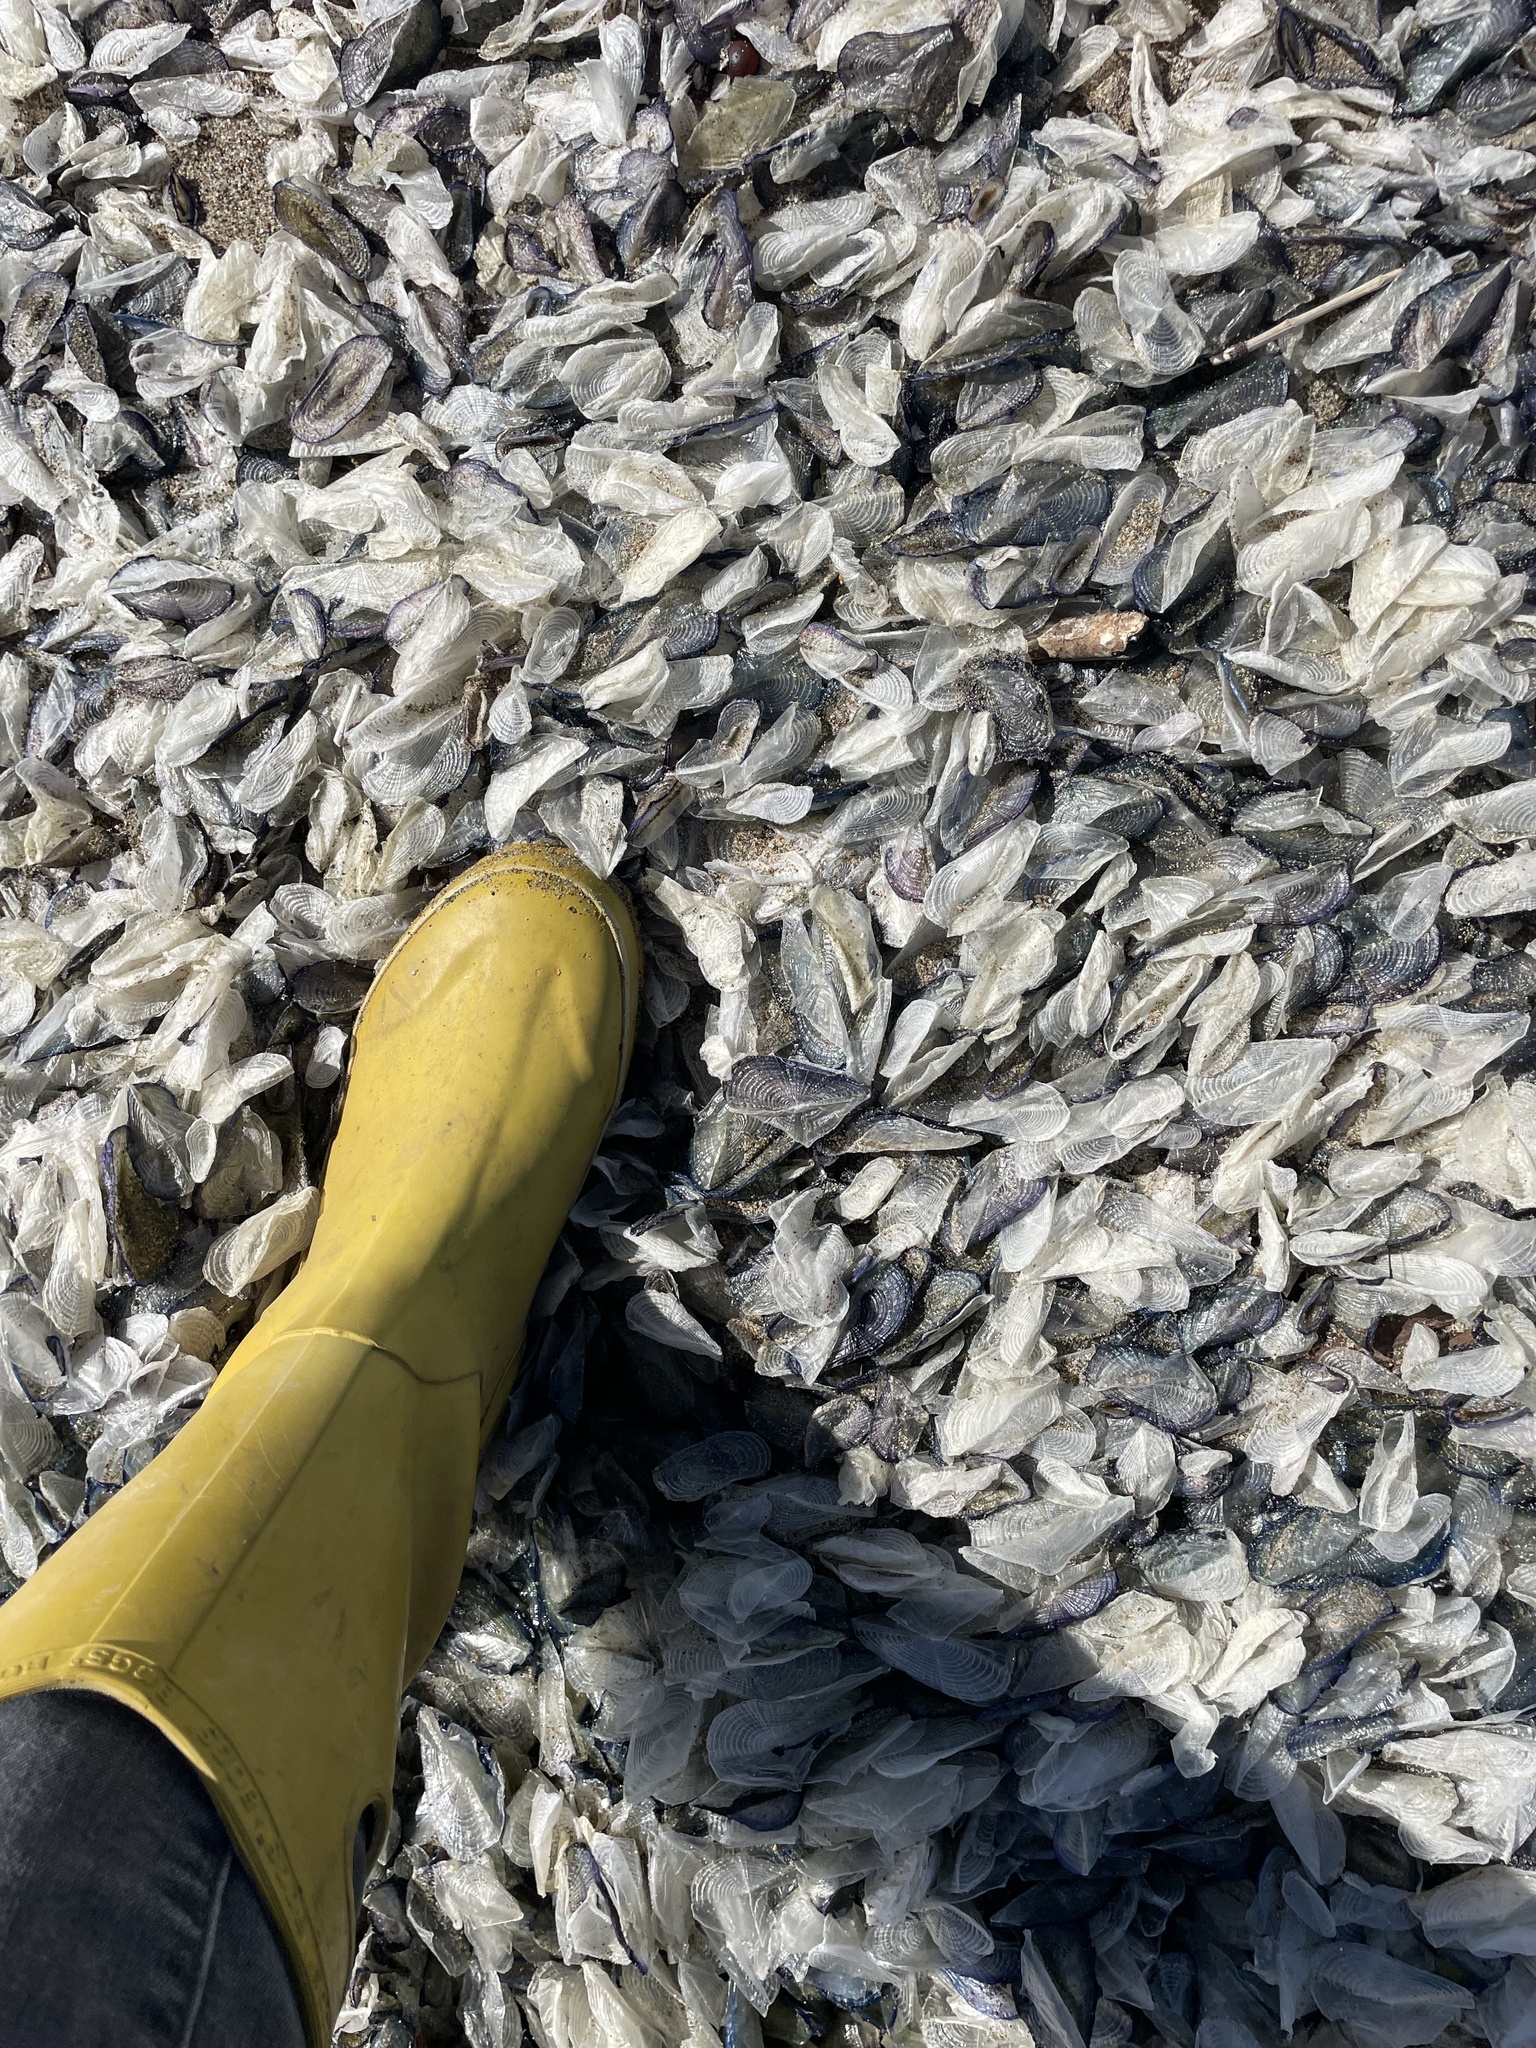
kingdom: Animalia
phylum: Cnidaria
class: Hydrozoa
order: Anthoathecata
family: Porpitidae
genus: Velella
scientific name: Velella velella
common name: By-the-wind-sailor
